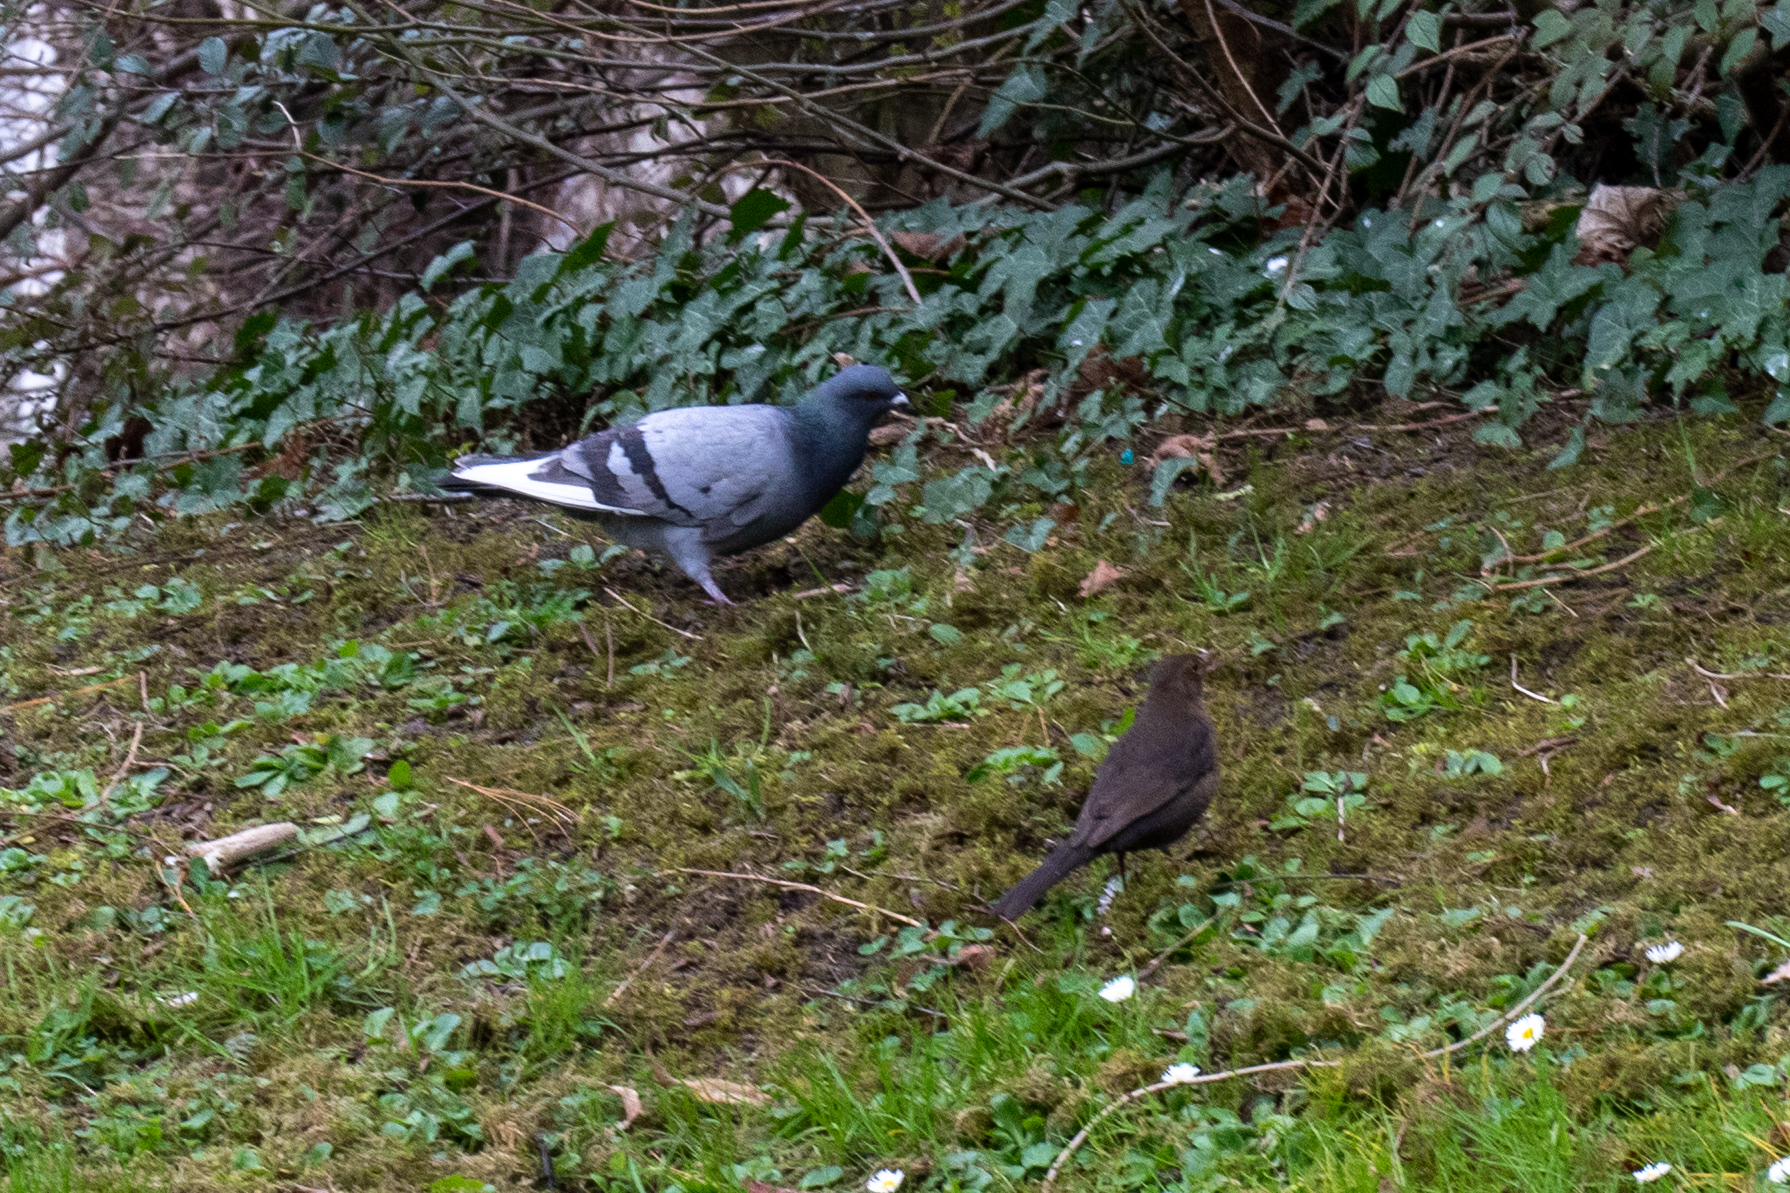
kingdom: Animalia
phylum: Chordata
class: Aves
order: Passeriformes
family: Turdidae
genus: Turdus
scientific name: Turdus merula
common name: Common blackbird
